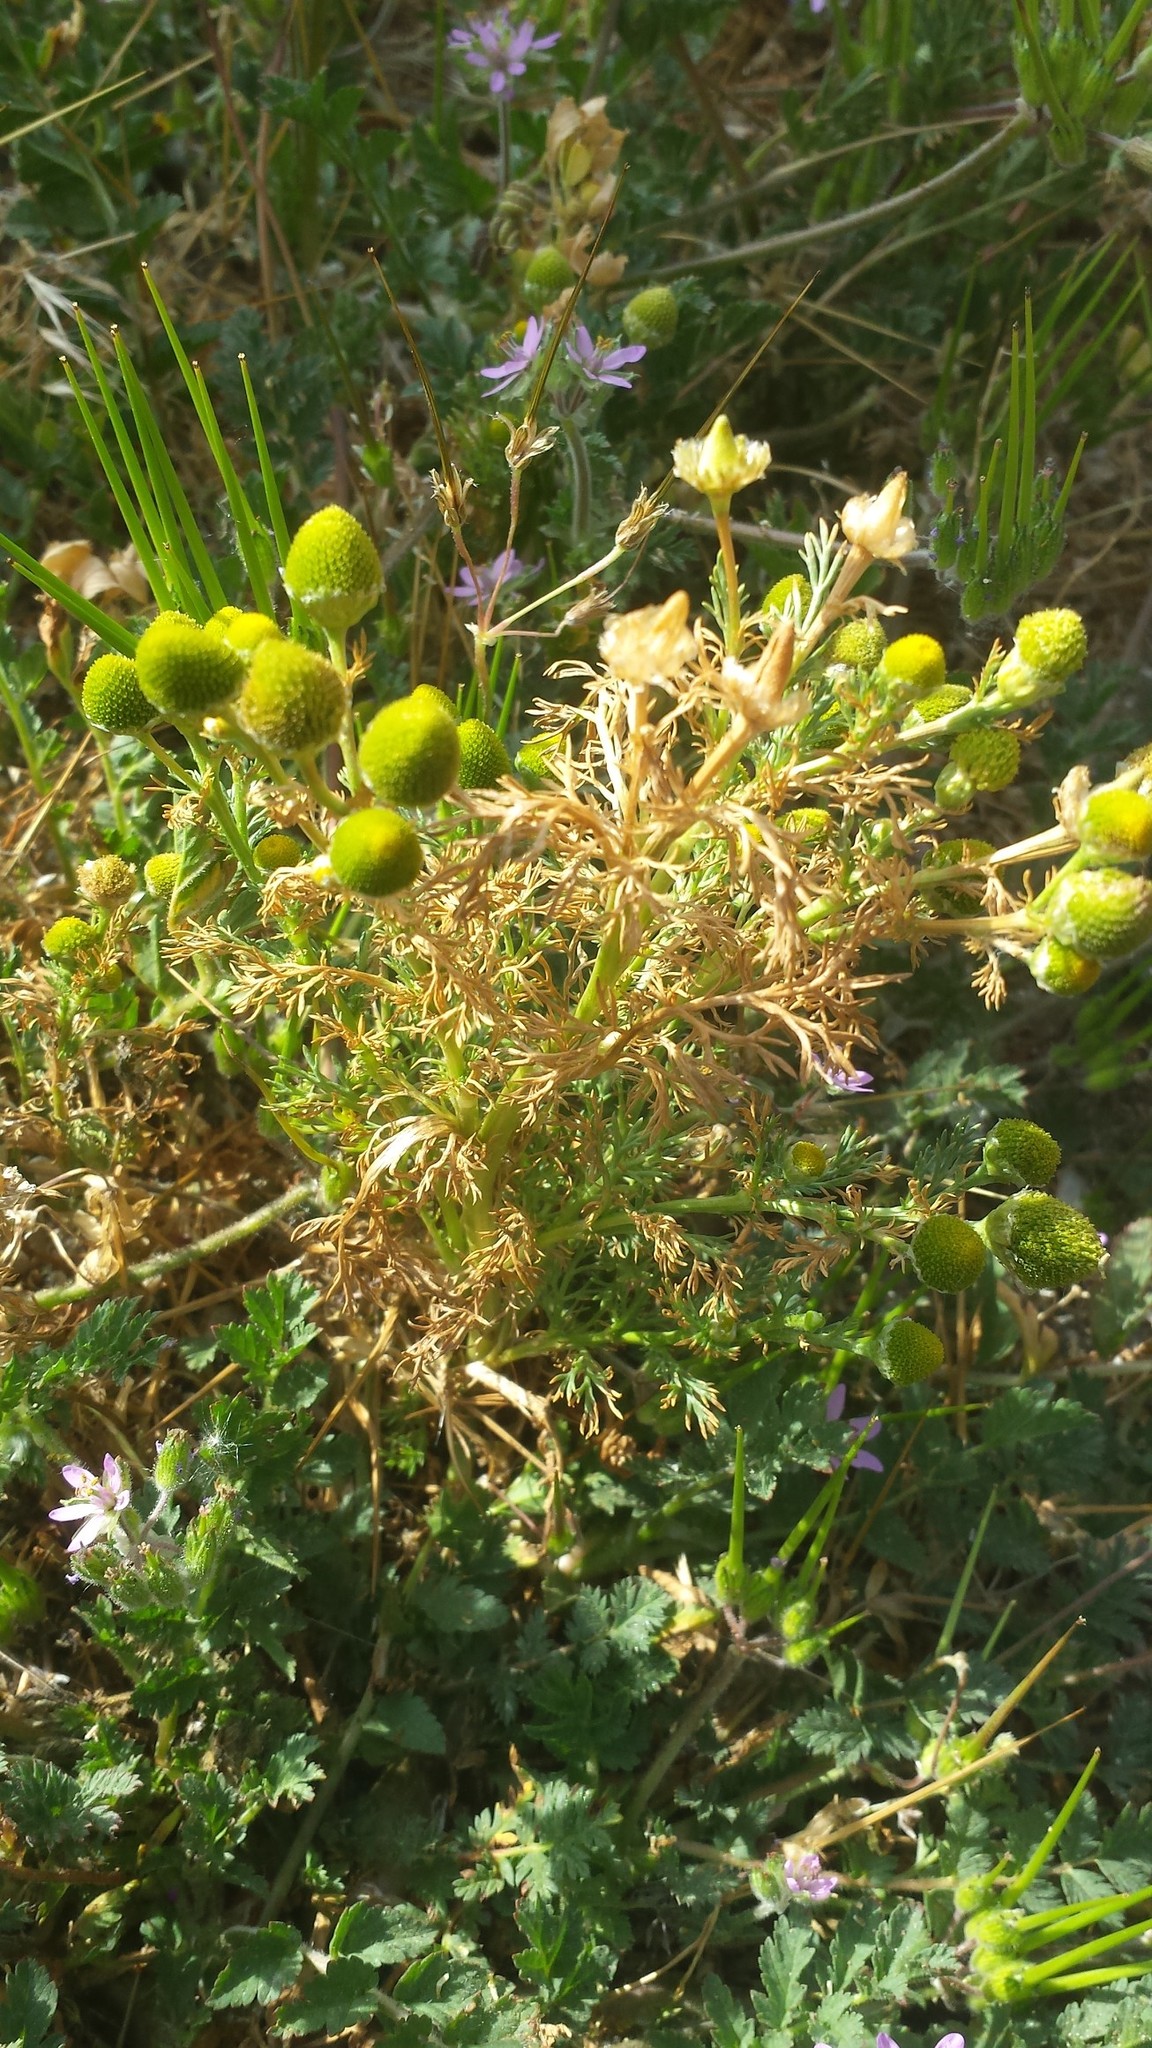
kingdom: Plantae
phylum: Tracheophyta
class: Magnoliopsida
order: Asterales
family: Asteraceae
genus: Matricaria
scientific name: Matricaria discoidea
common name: Disc mayweed
